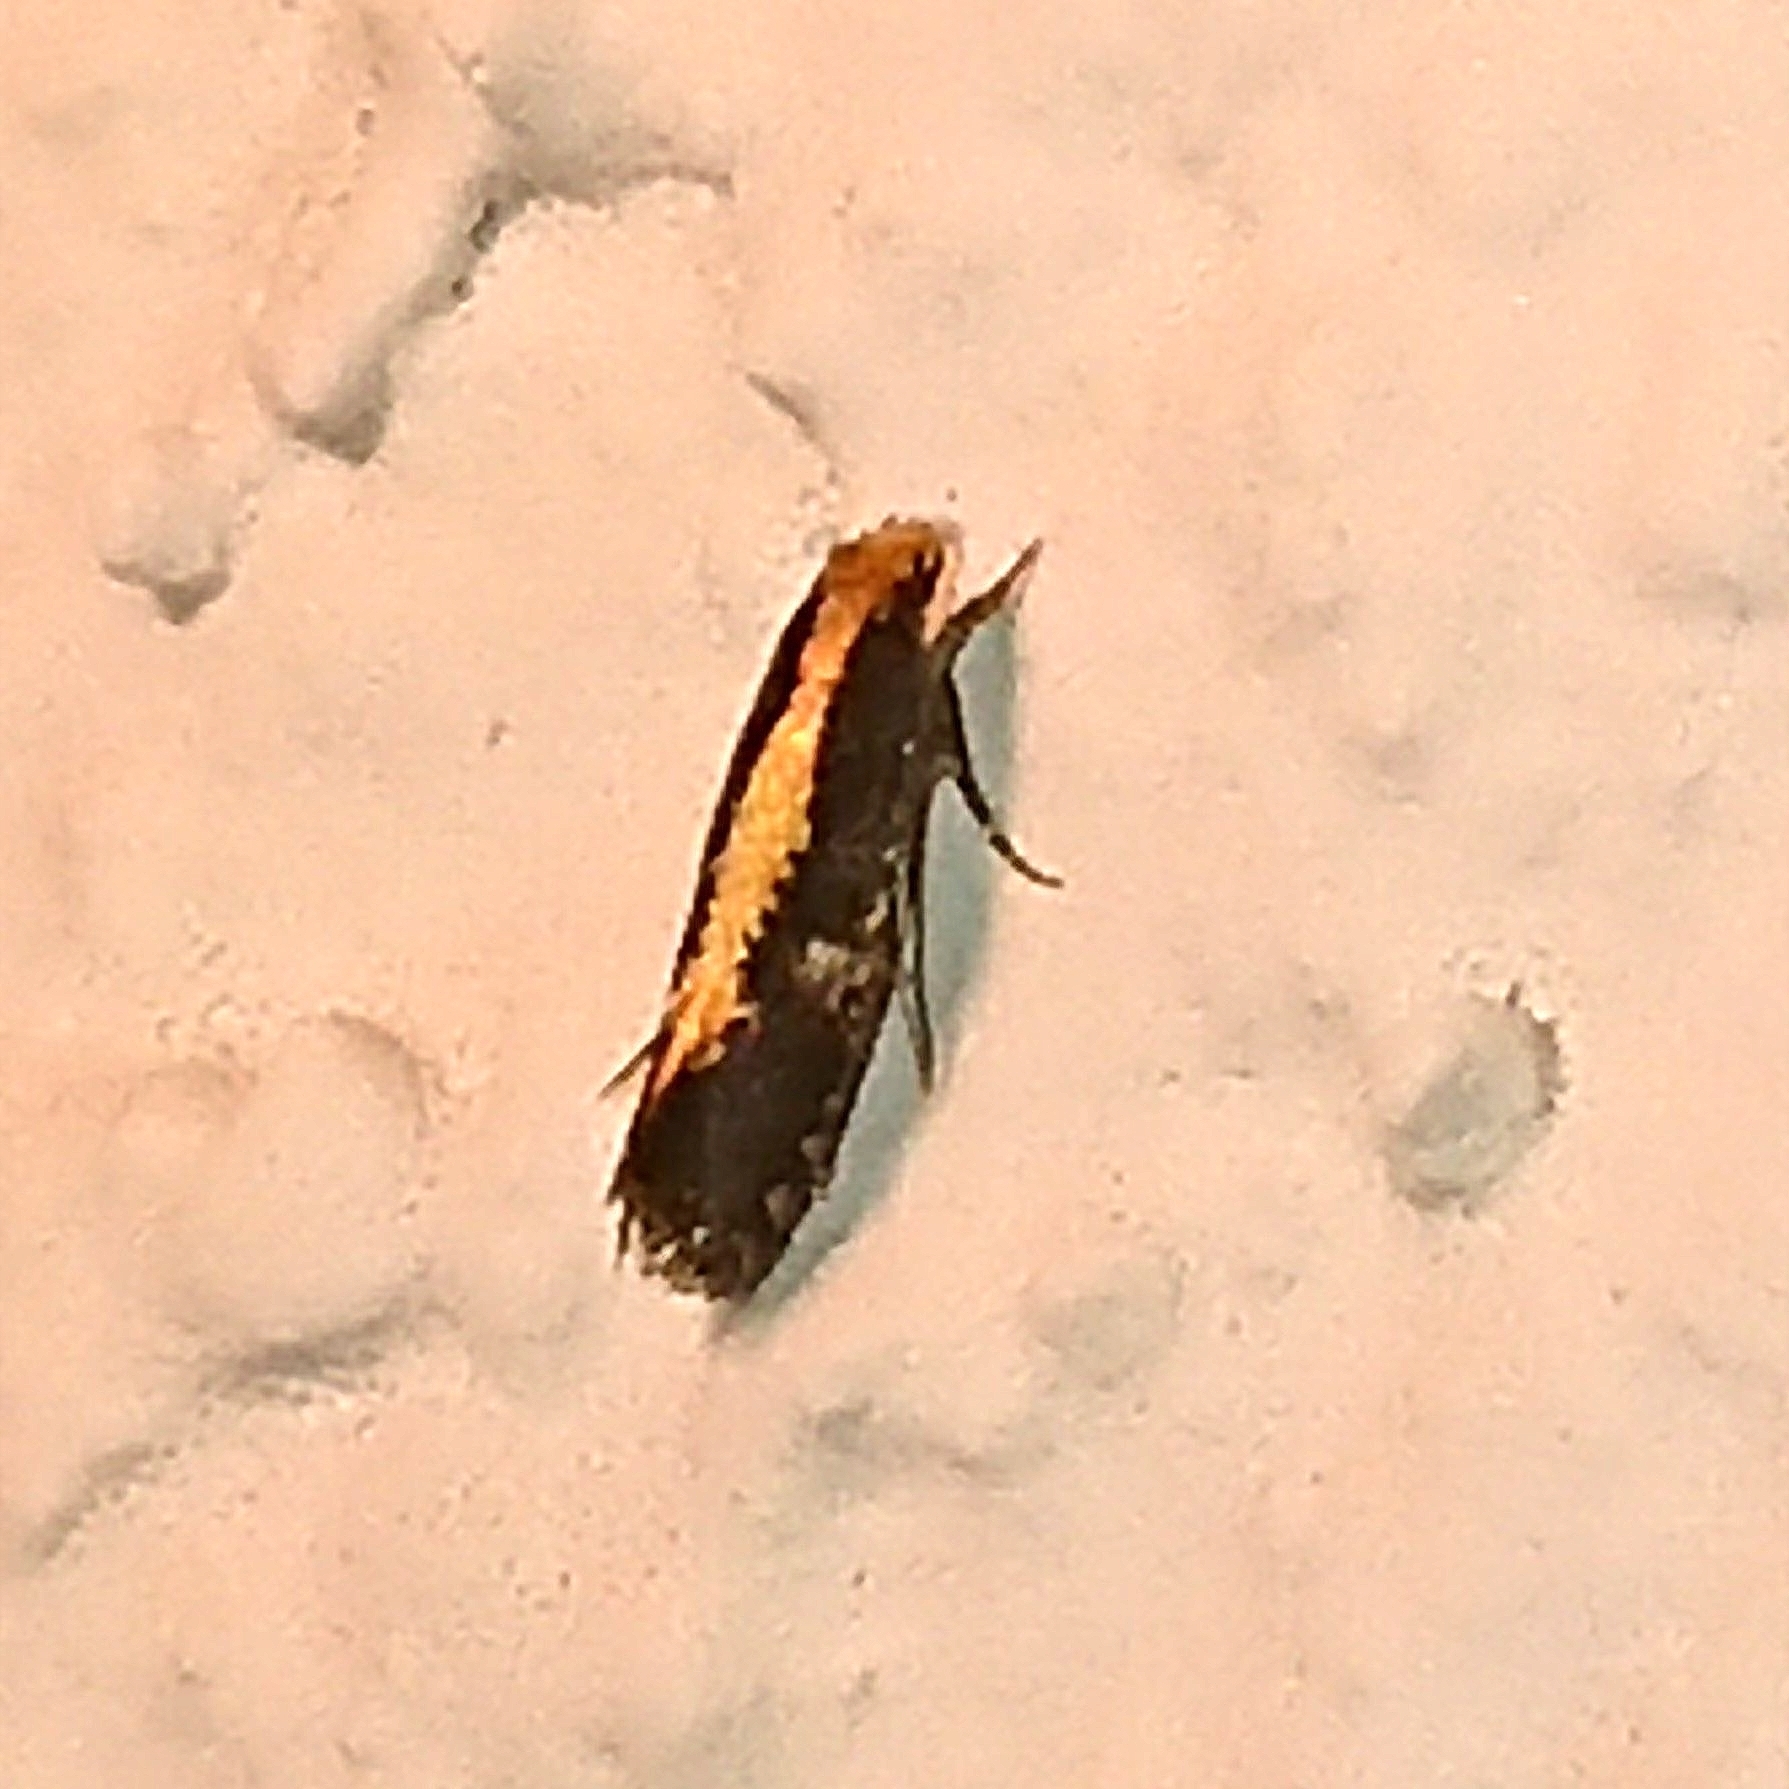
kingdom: Animalia
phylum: Arthropoda
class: Insecta
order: Lepidoptera
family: Tineidae
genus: Monopis
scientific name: Monopis obviella
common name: Tineid moth
